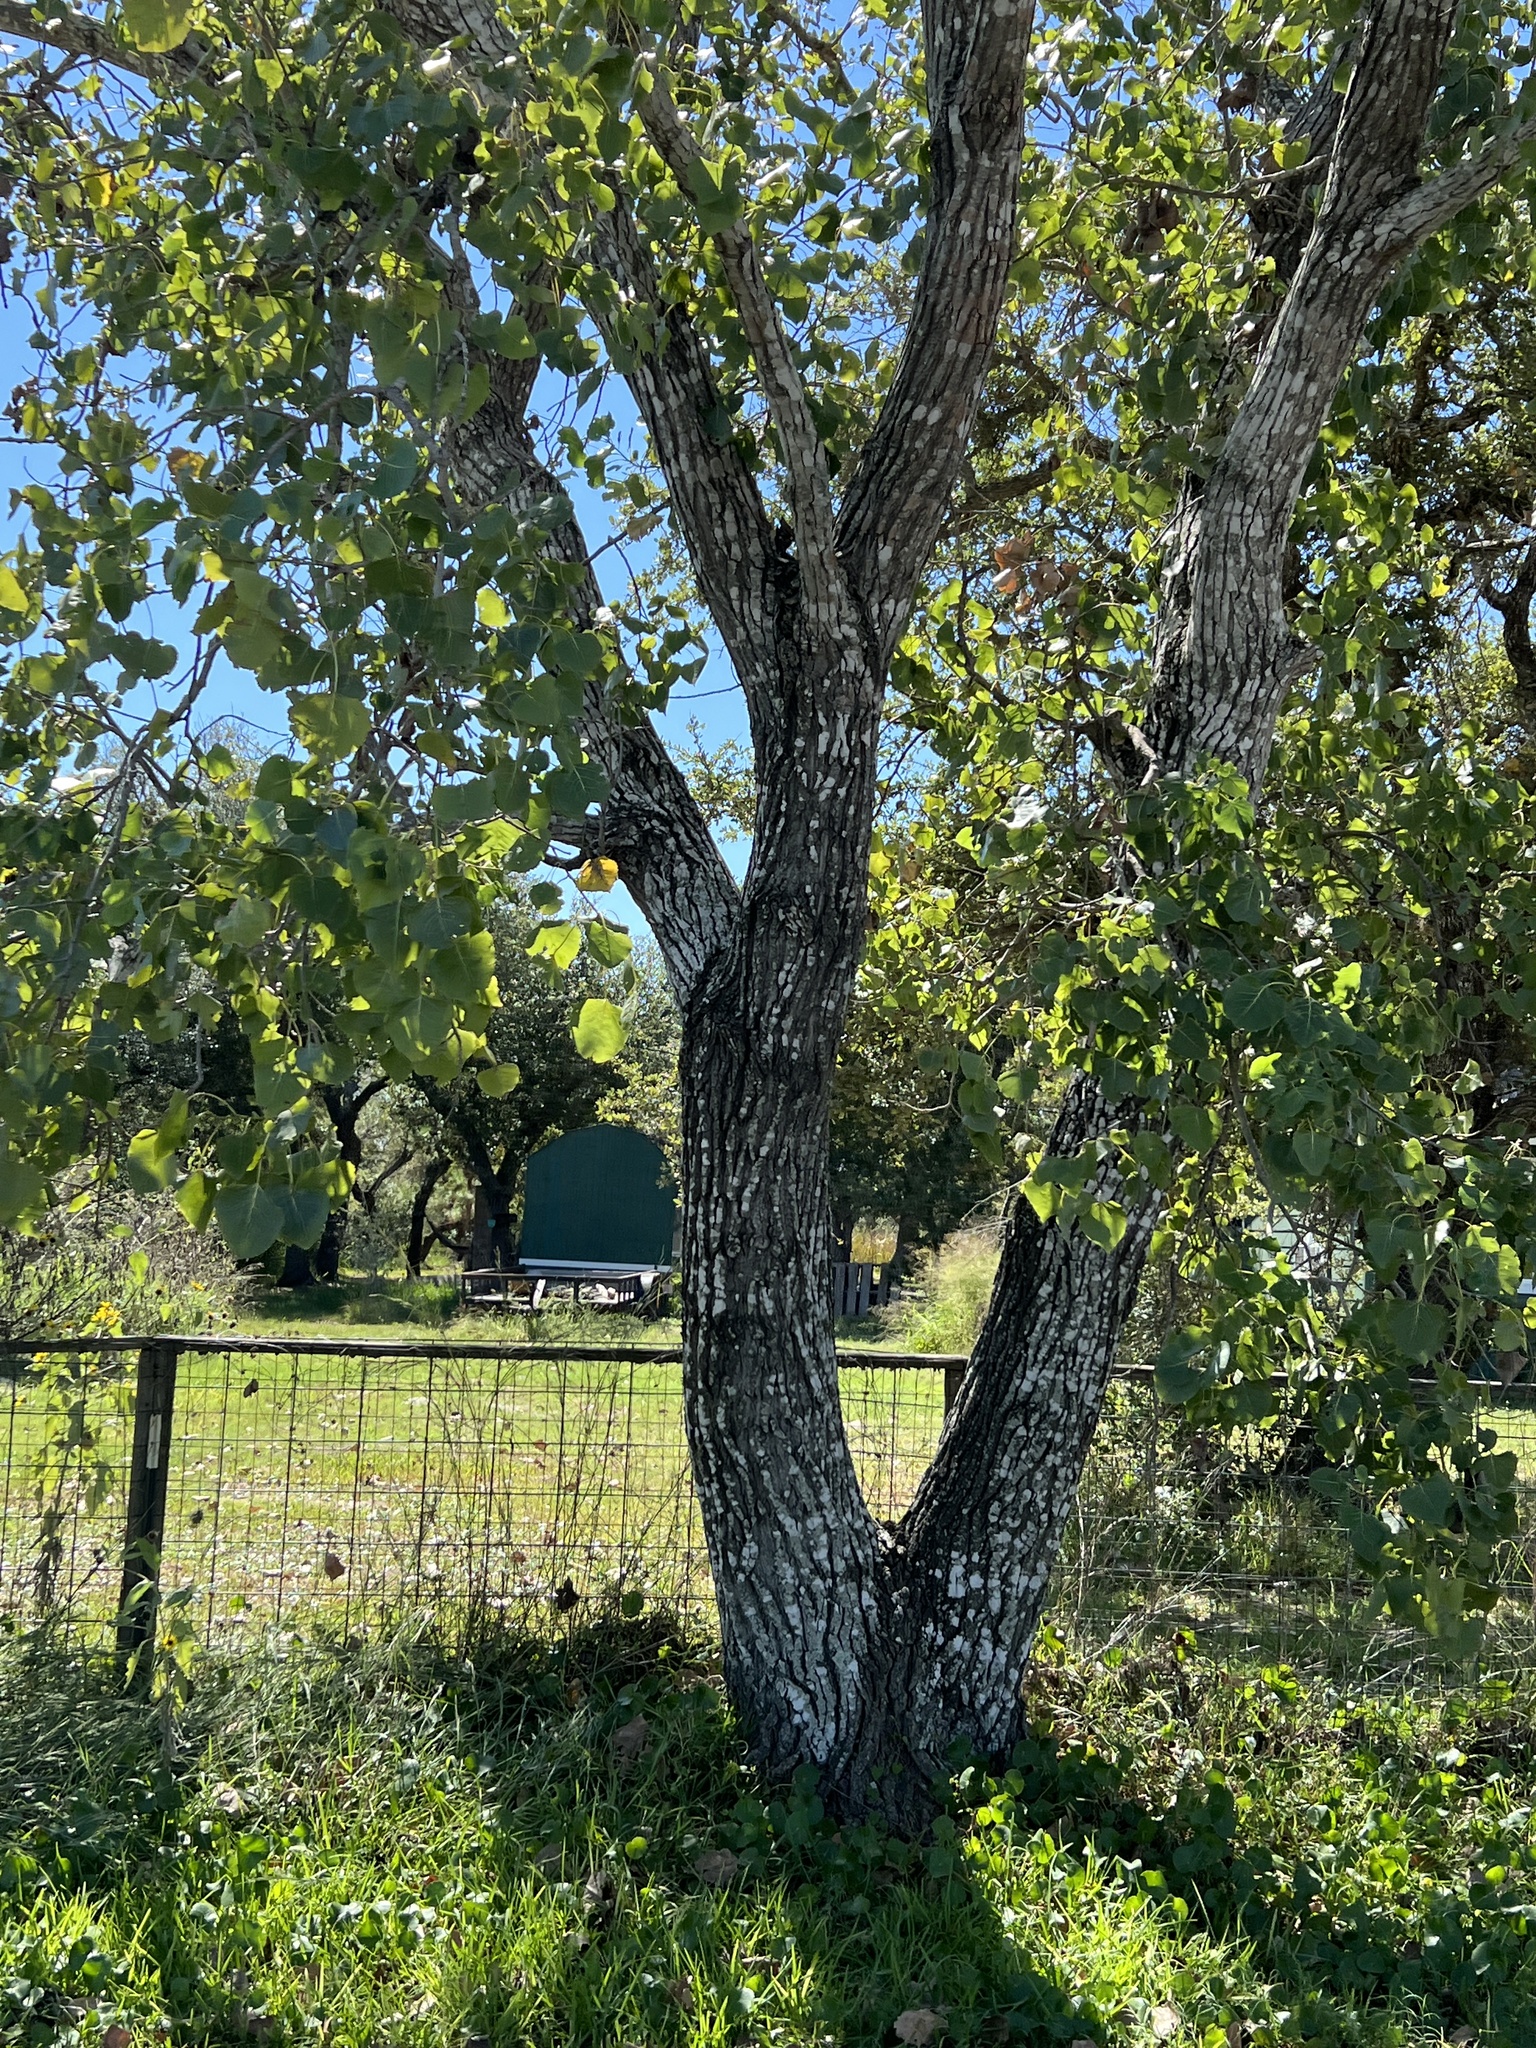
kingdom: Plantae
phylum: Tracheophyta
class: Magnoliopsida
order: Malpighiales
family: Salicaceae
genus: Populus
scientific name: Populus deltoides
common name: Eastern cottonwood
